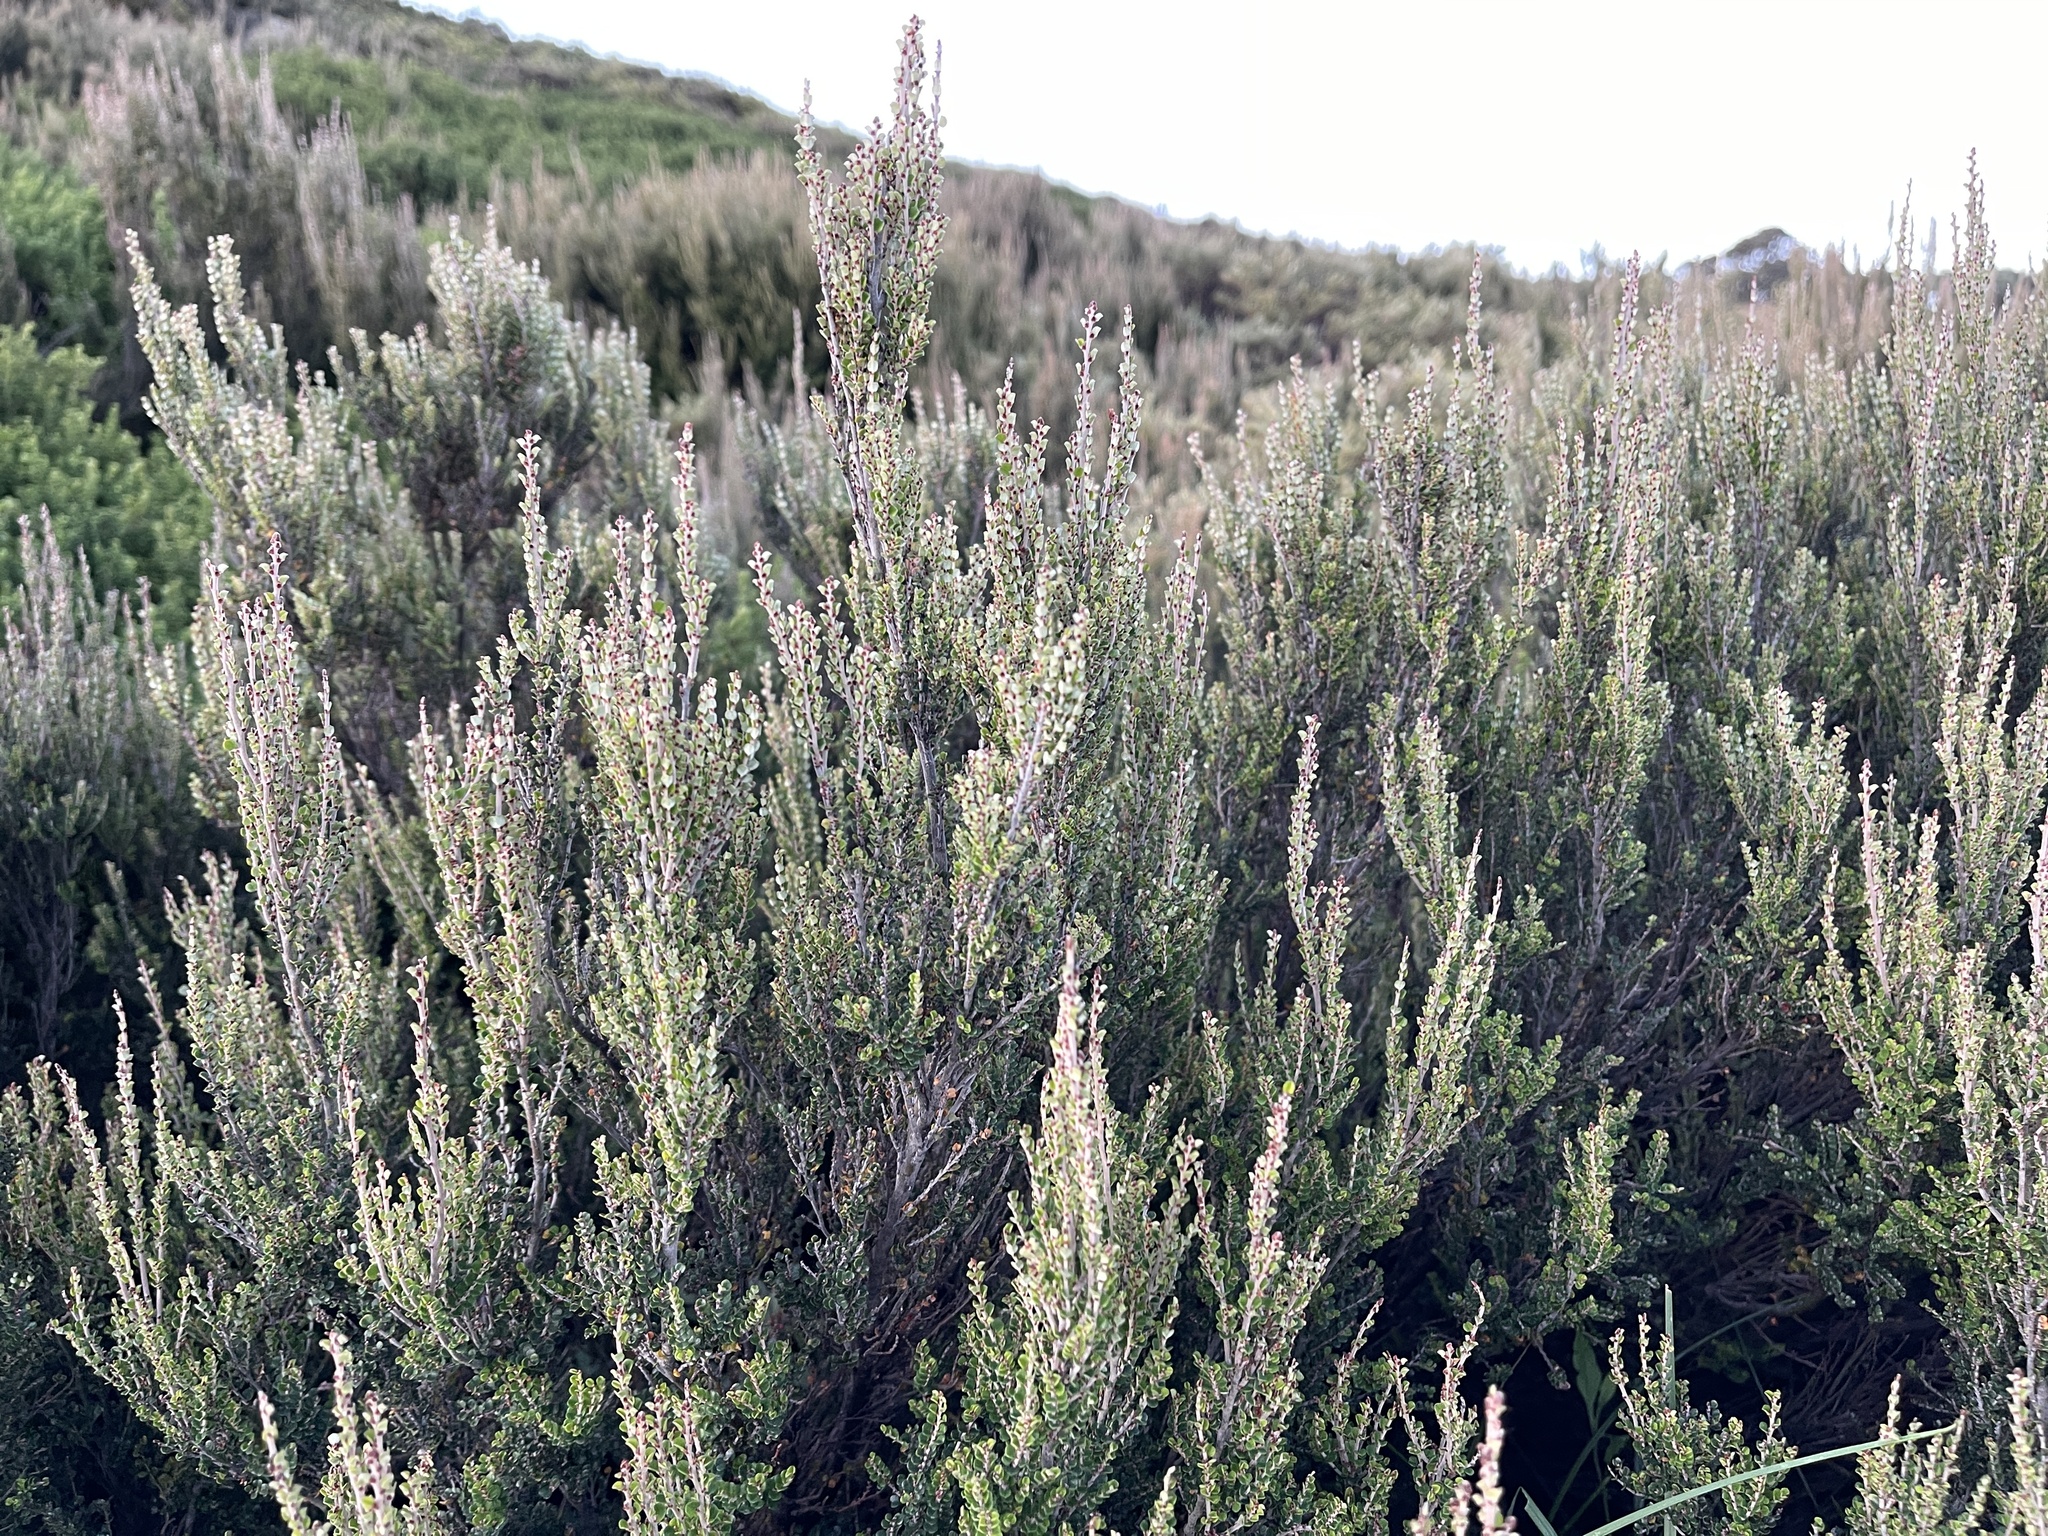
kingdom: Plantae
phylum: Tracheophyta
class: Magnoliopsida
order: Fabales
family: Fabaceae
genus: Bossiaea
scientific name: Bossiaea sericea
